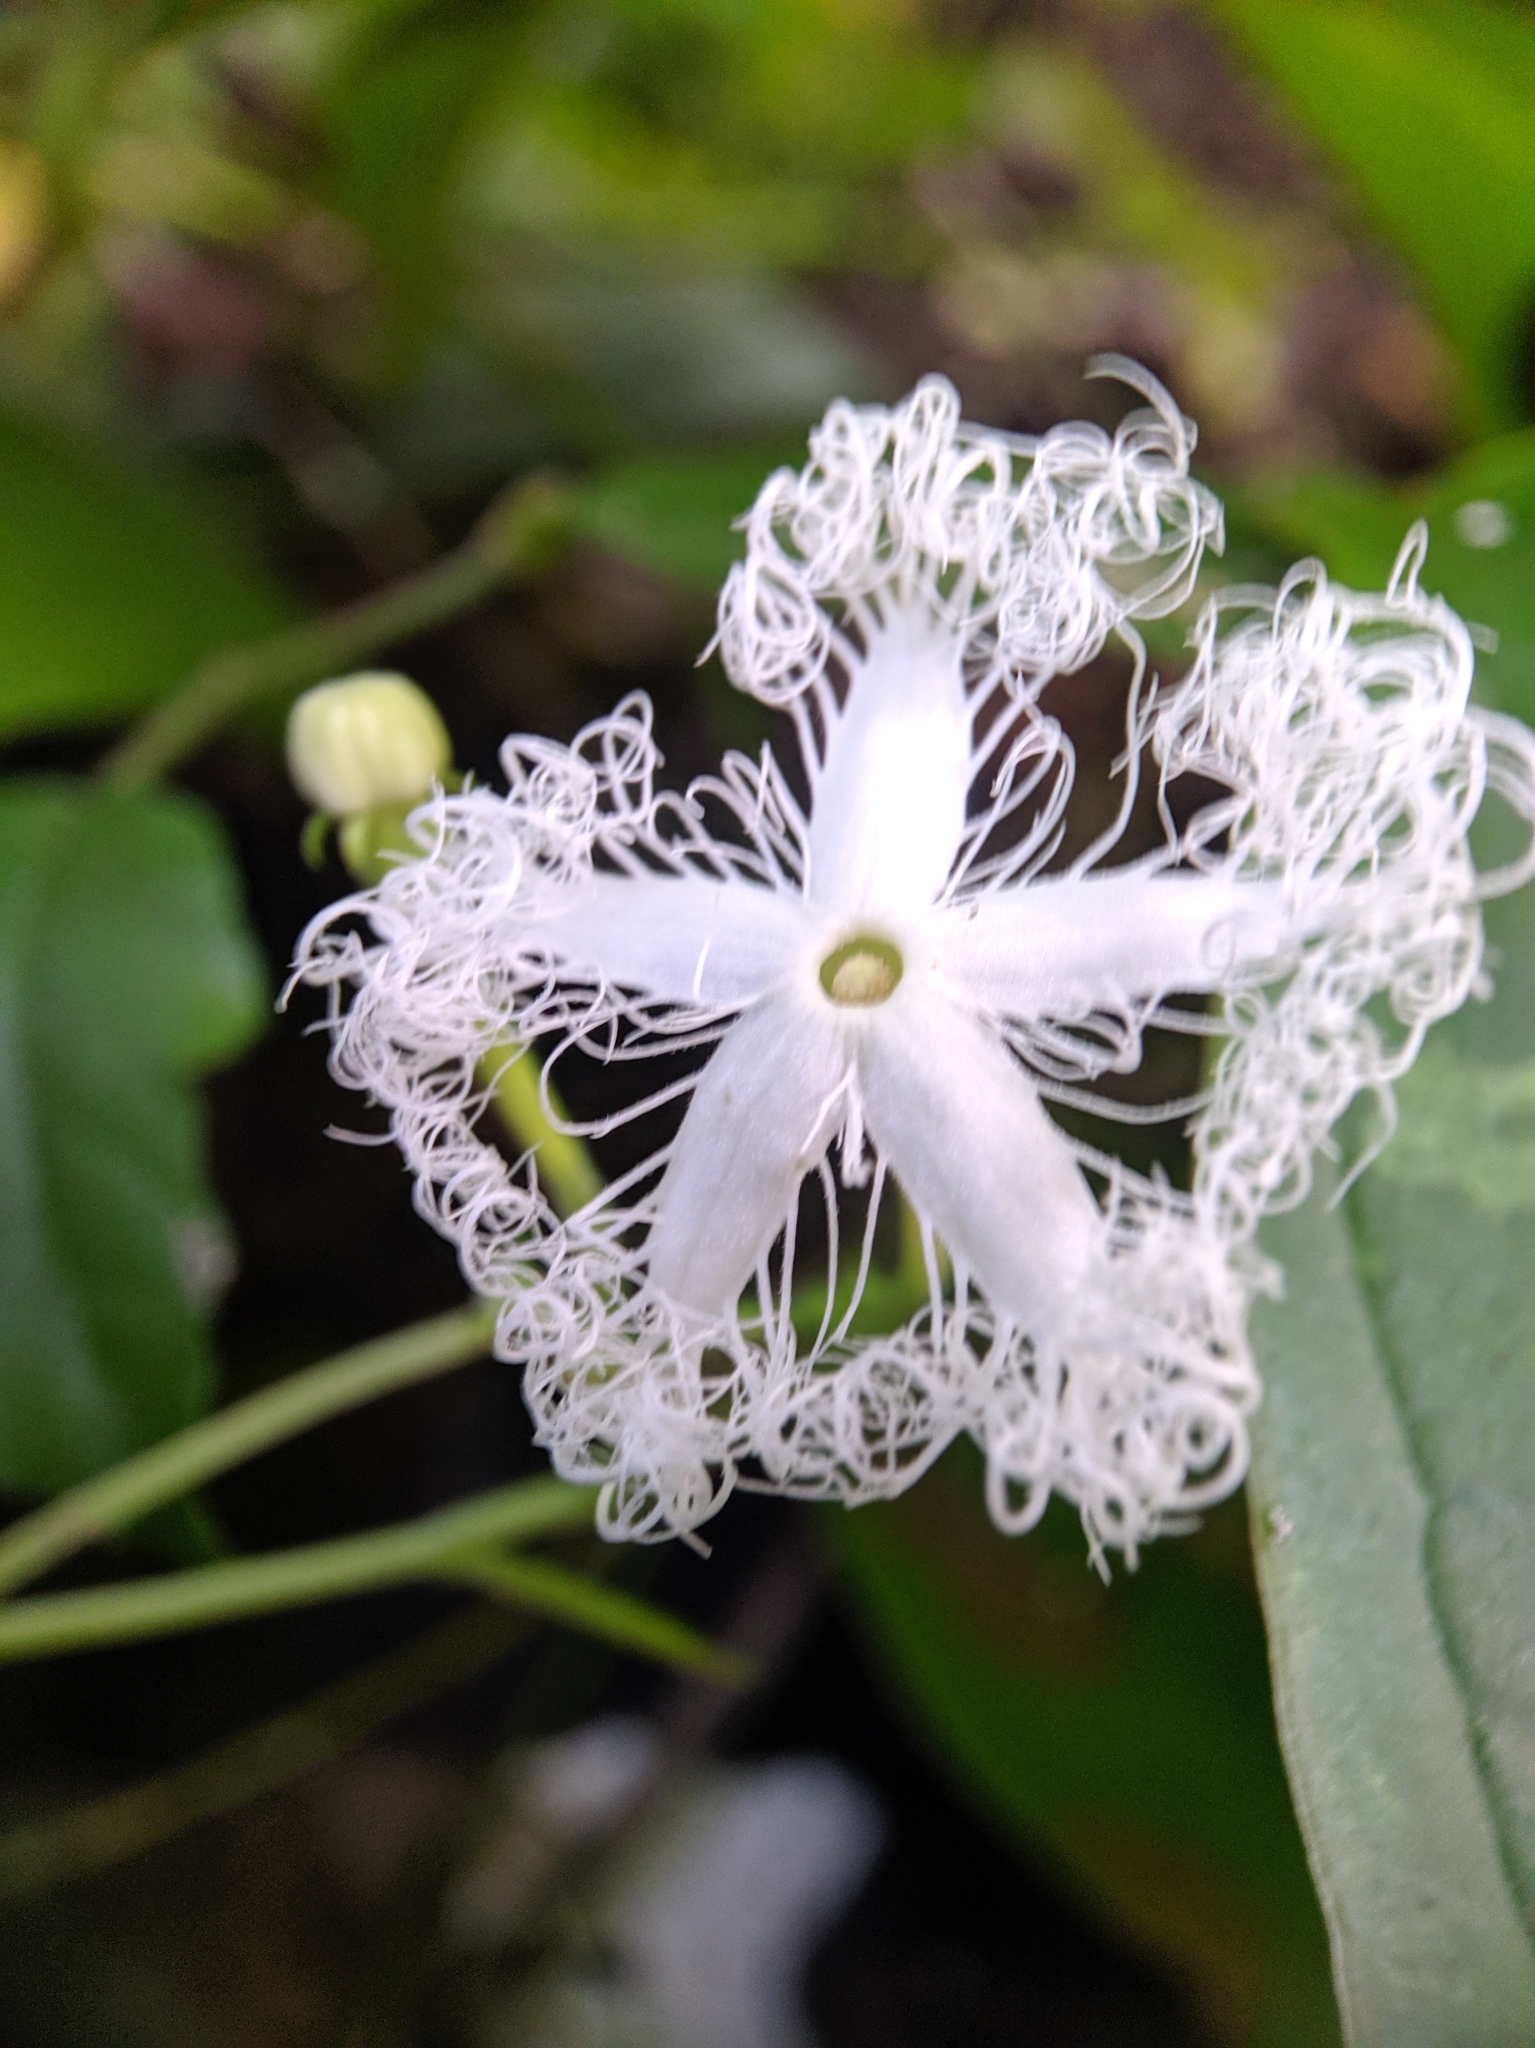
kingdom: Plantae
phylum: Tracheophyta
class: Magnoliopsida
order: Cucurbitales
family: Cucurbitaceae
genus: Trichosanthes
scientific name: Trichosanthes cucumerina
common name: Snakegourd
